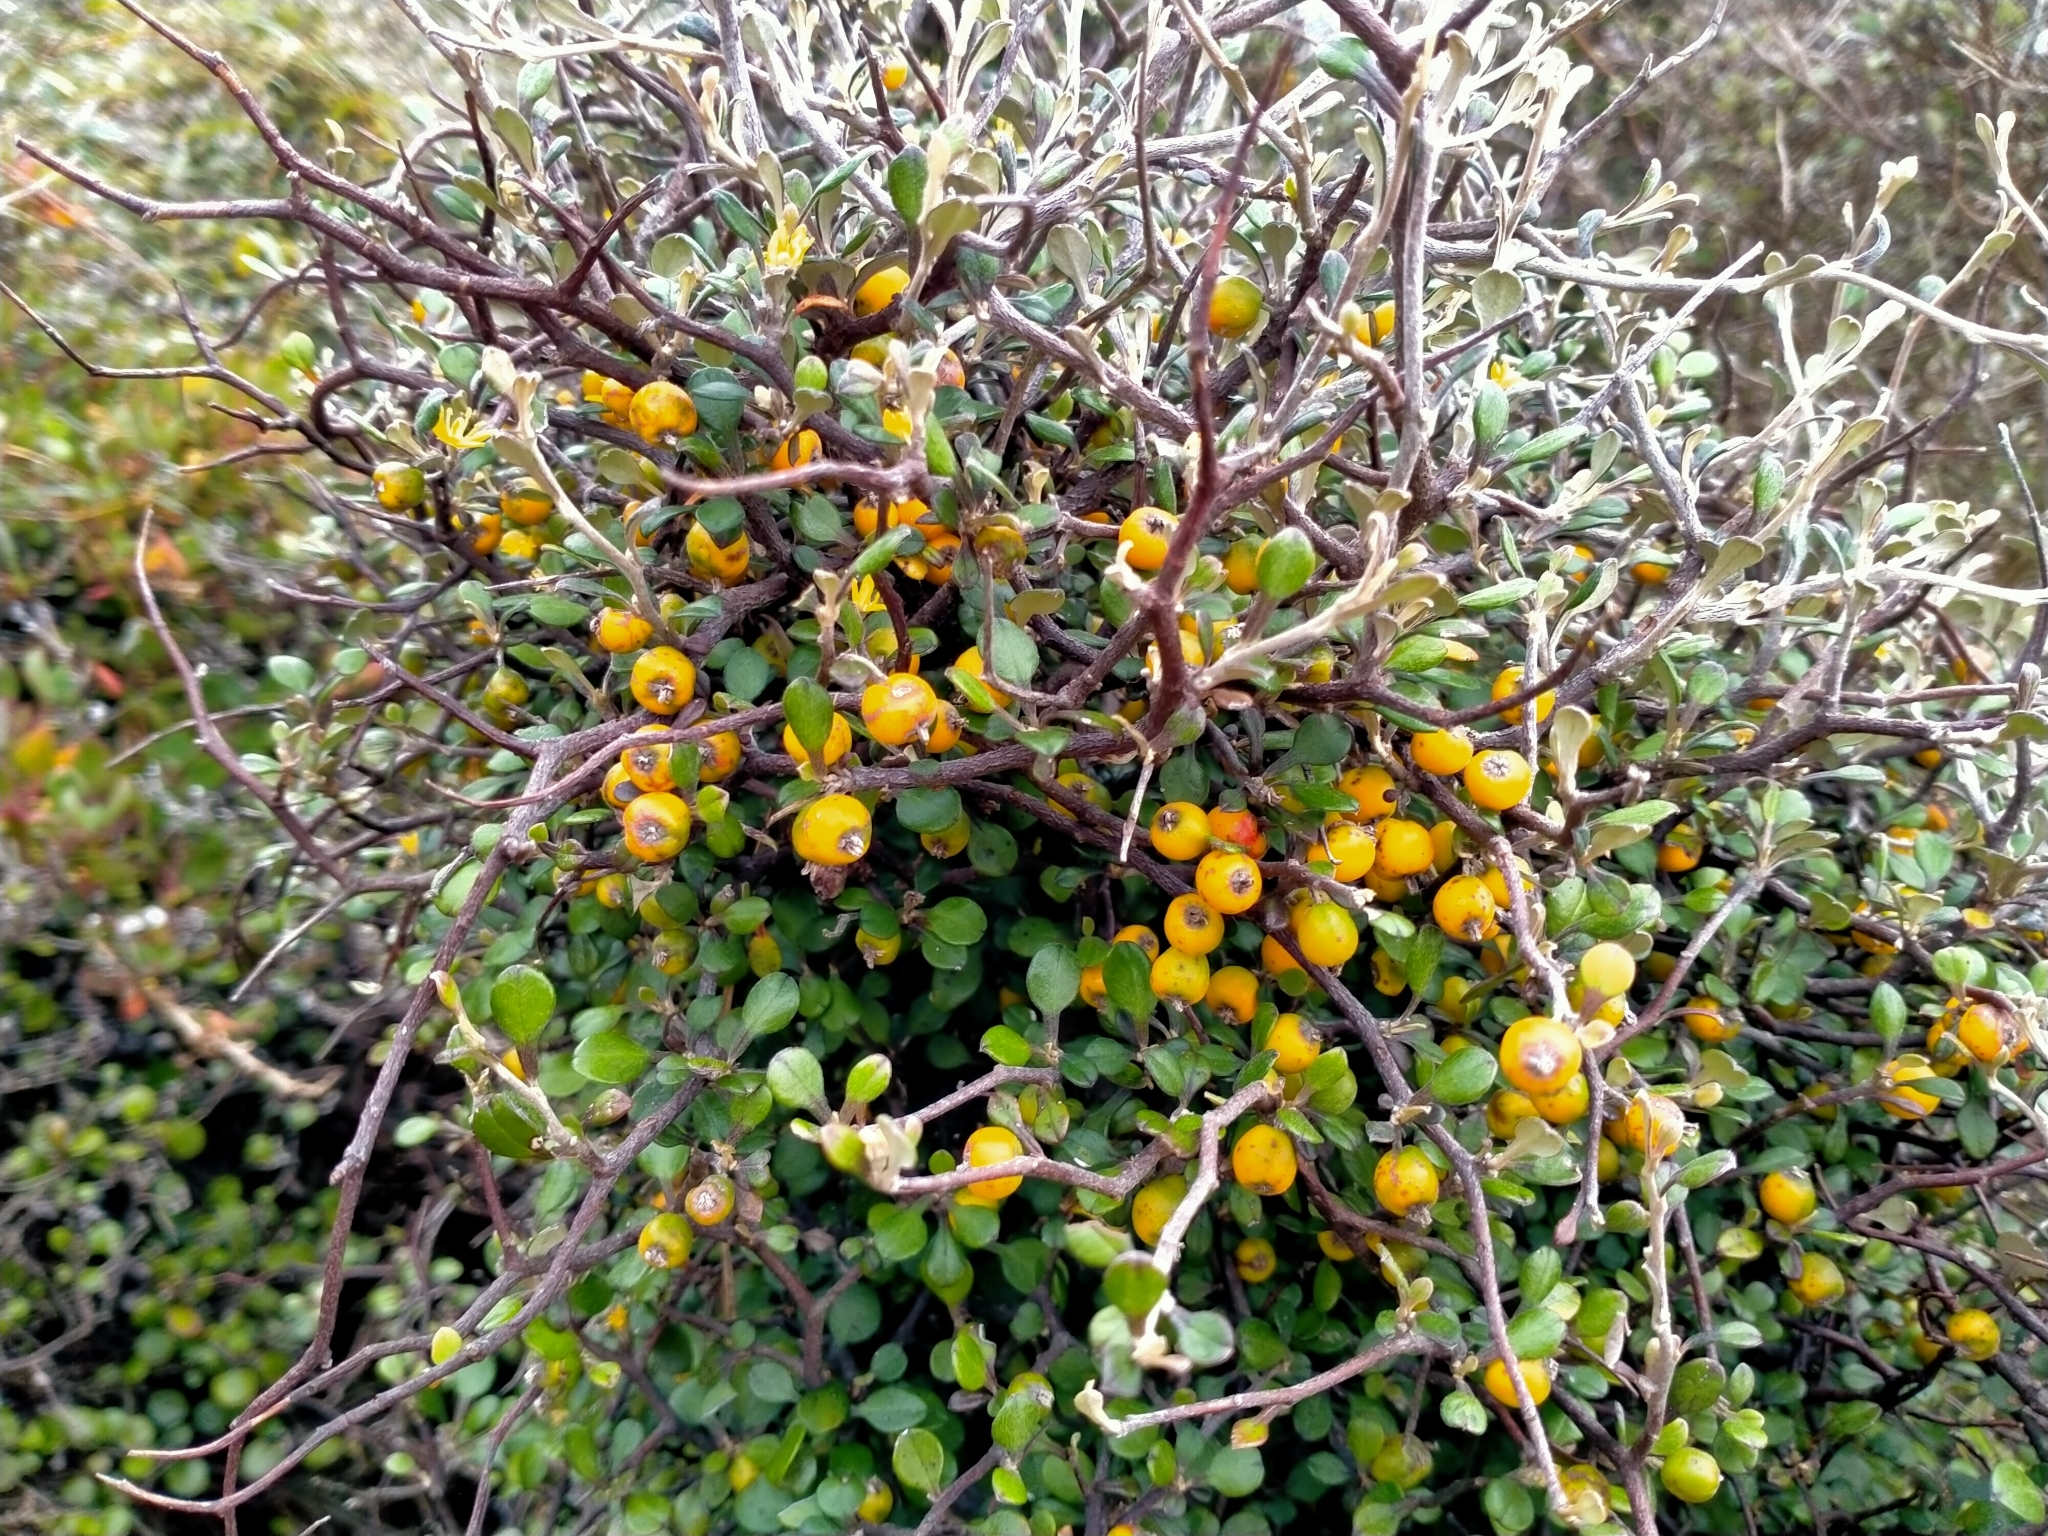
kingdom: Plantae
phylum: Tracheophyta
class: Magnoliopsida
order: Asterales
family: Argophyllaceae
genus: Corokia
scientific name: Corokia cotoneaster
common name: Wire nettingbush
